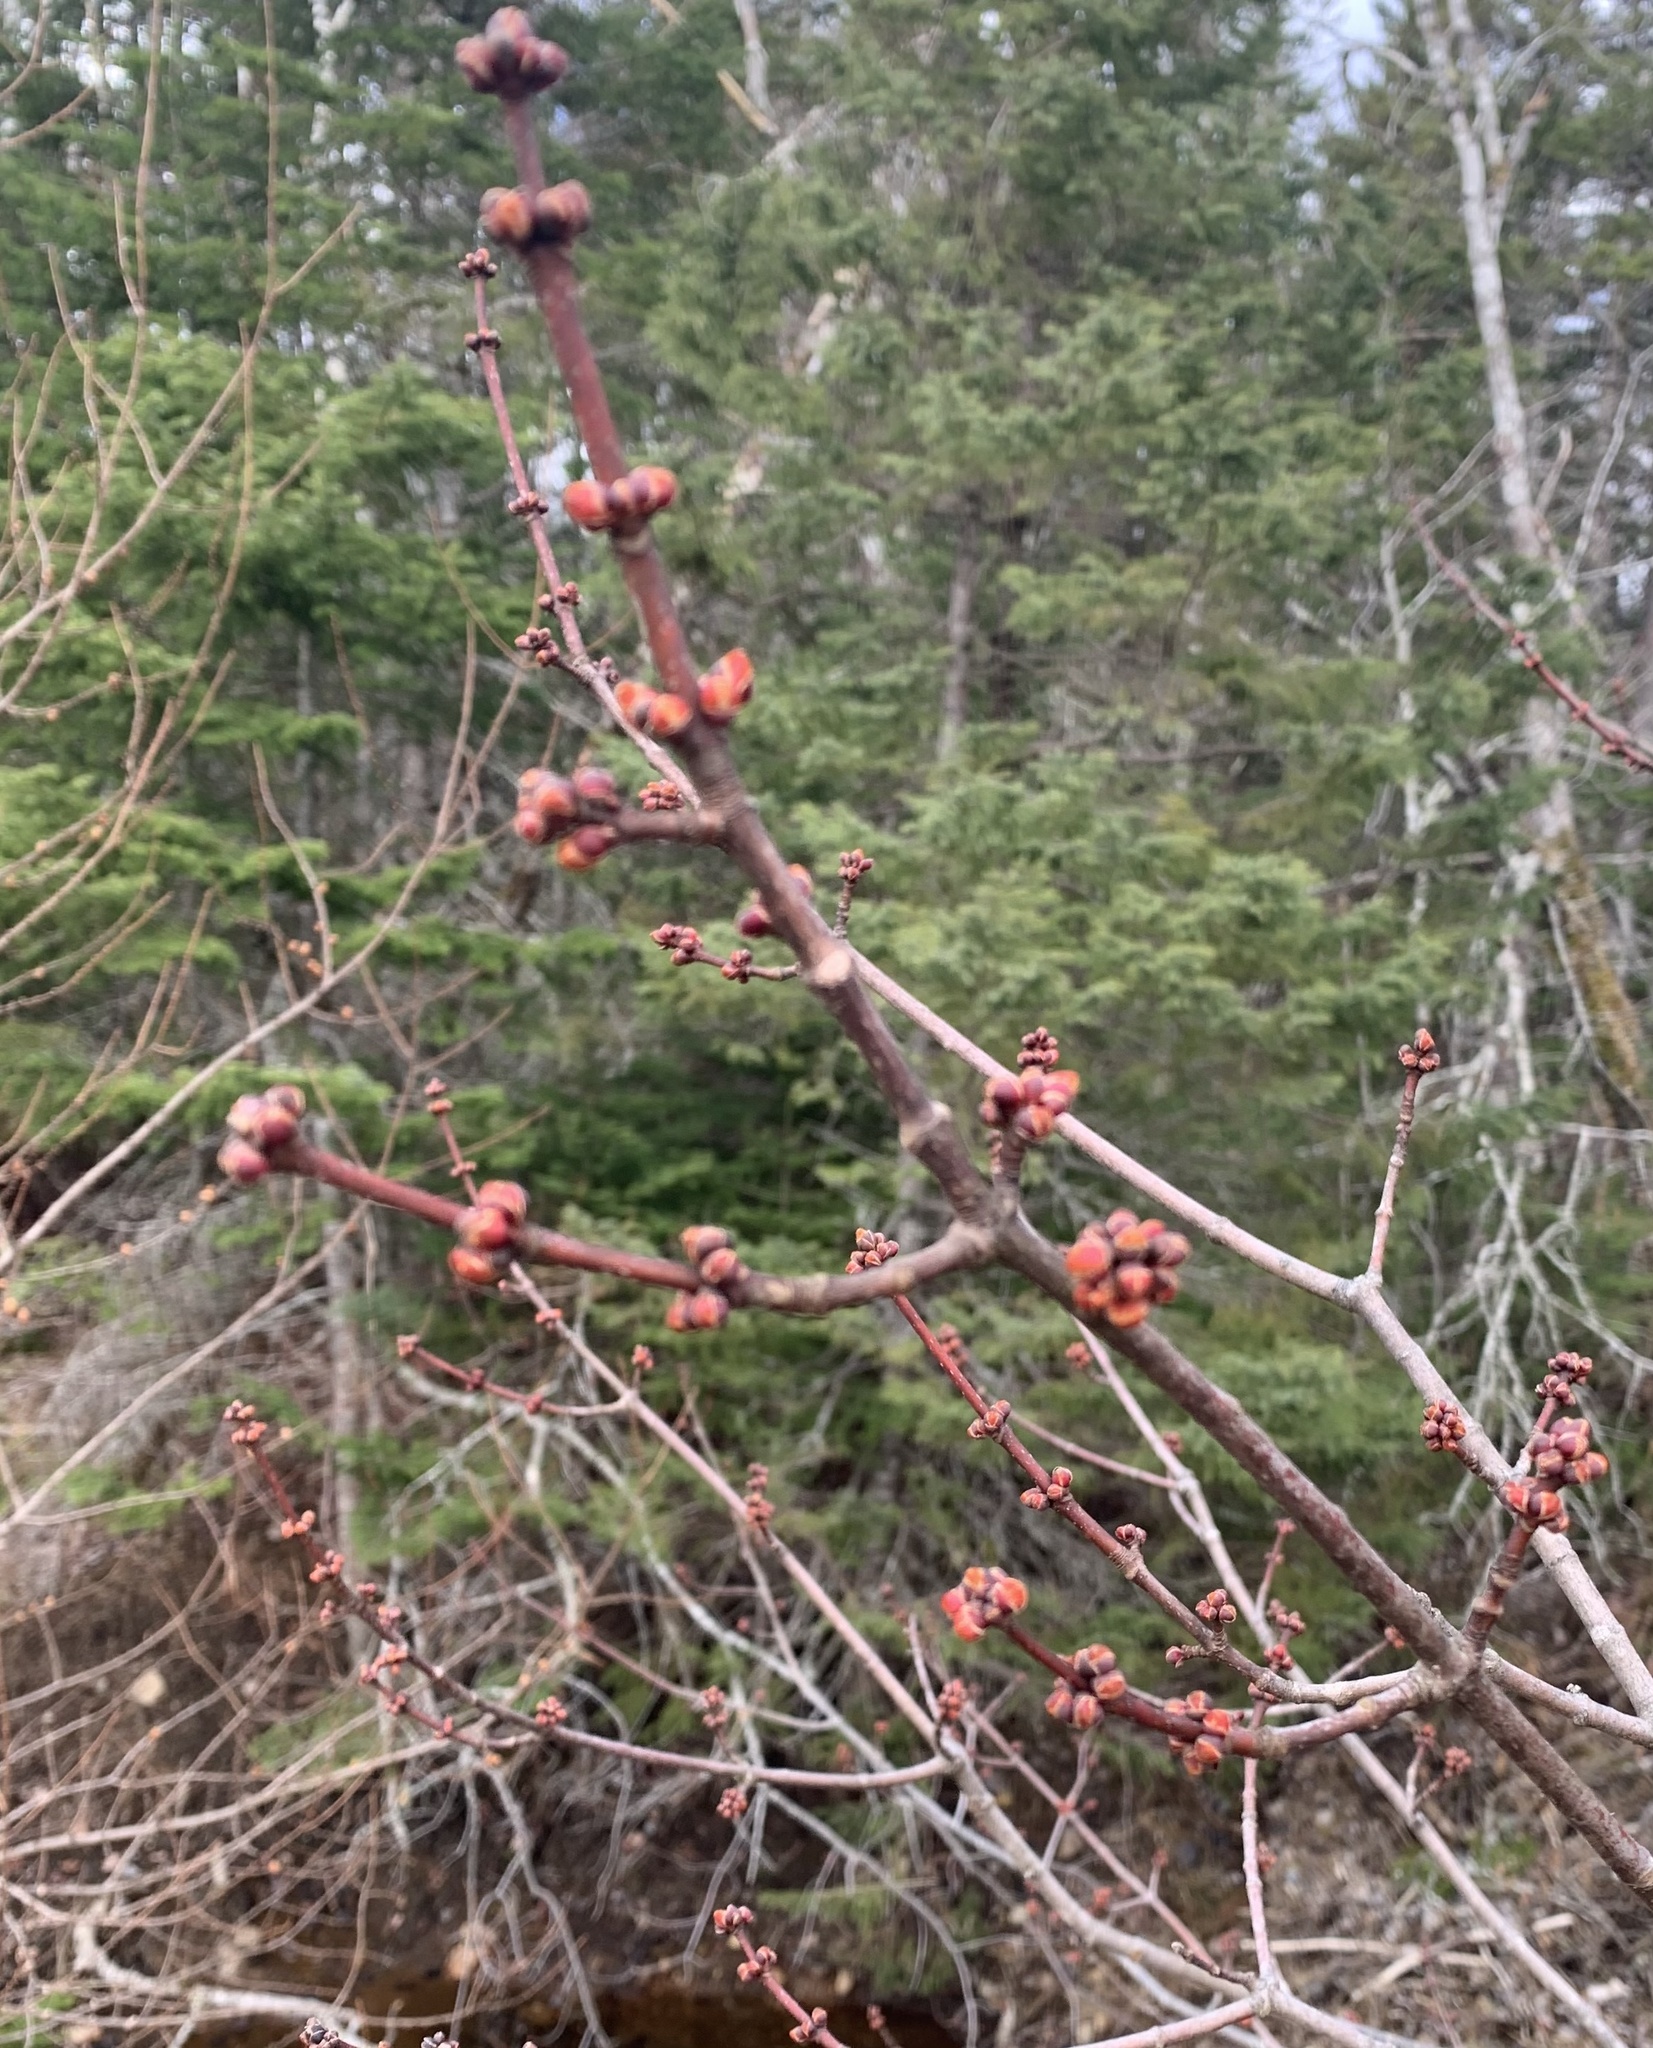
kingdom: Plantae
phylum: Tracheophyta
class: Magnoliopsida
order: Sapindales
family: Sapindaceae
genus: Acer
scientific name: Acer rubrum
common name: Red maple
